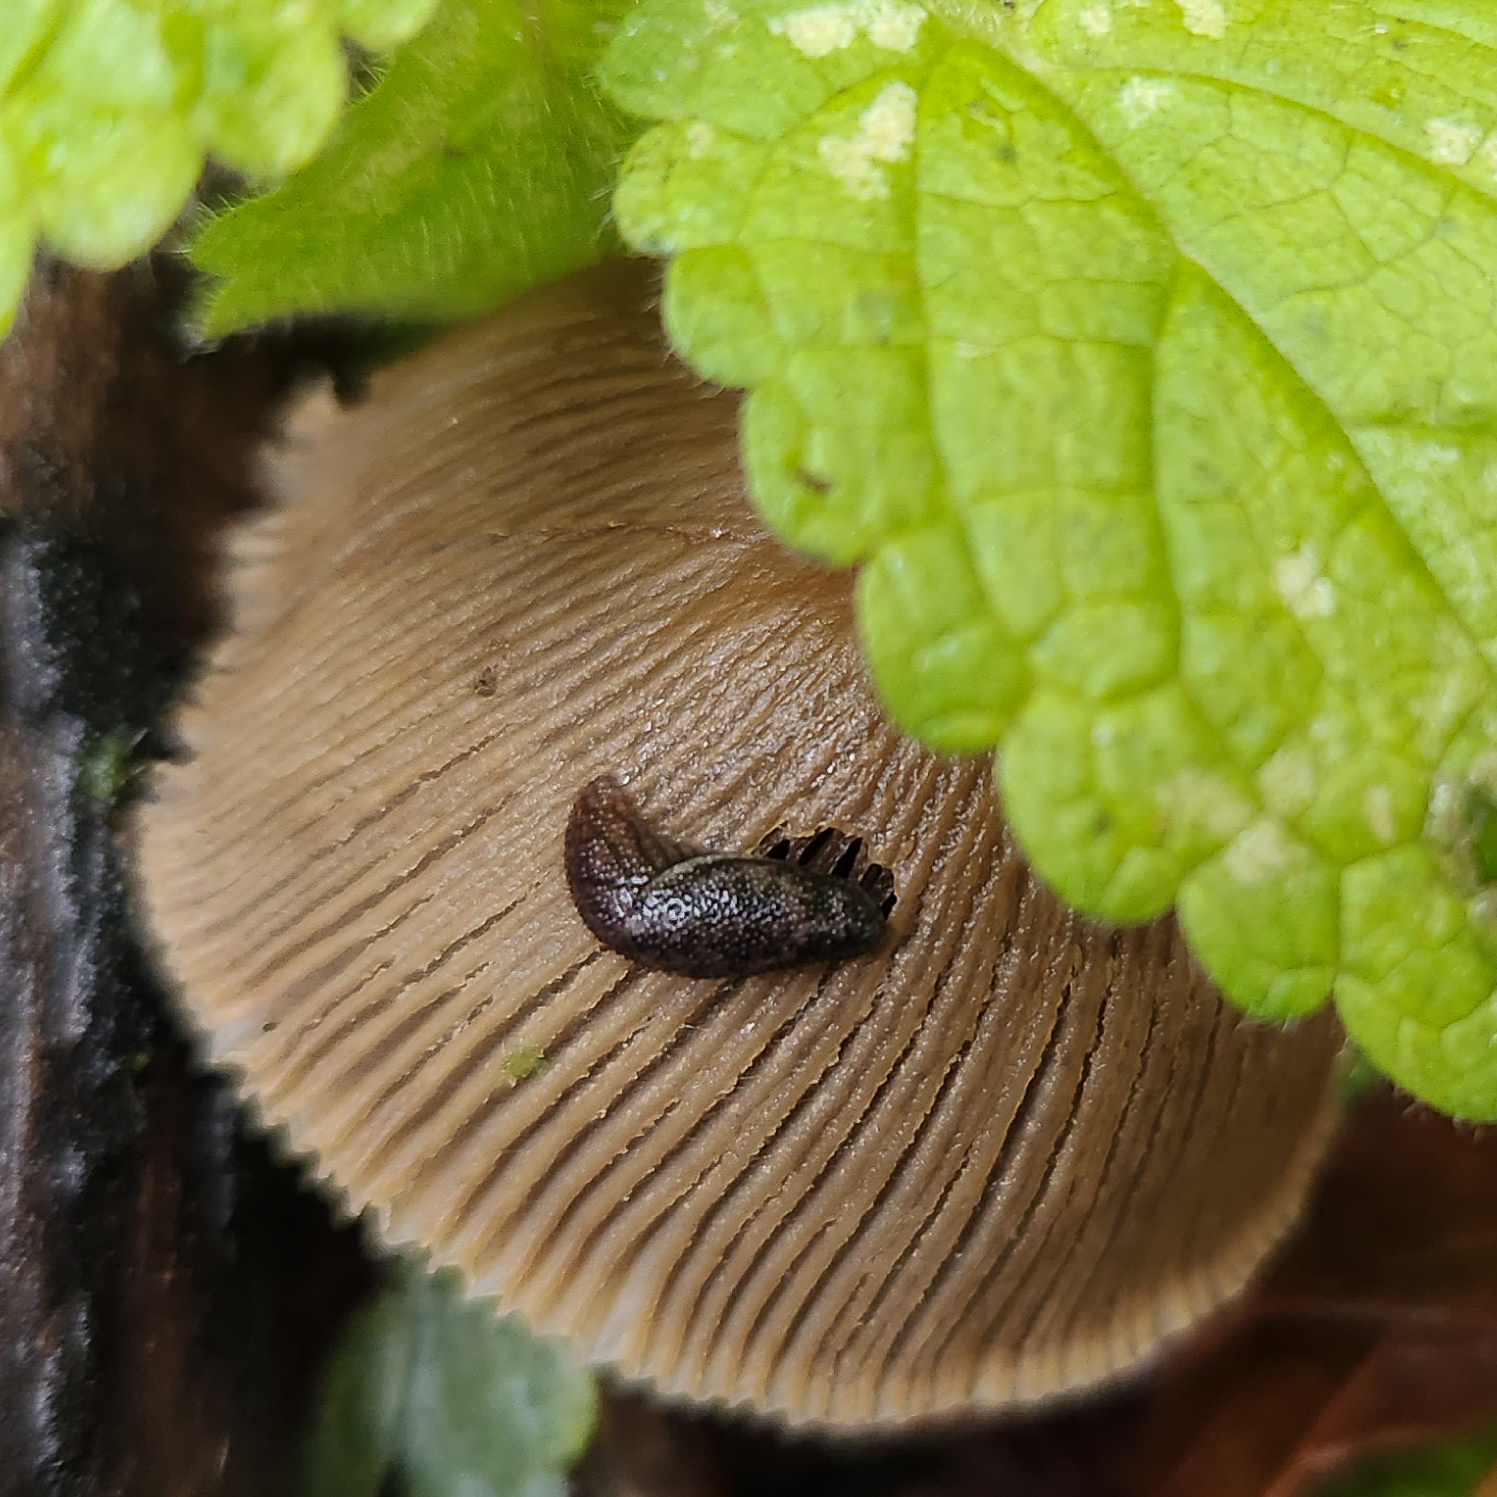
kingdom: Animalia
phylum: Mollusca
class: Gastropoda
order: Stylommatophora
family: Ariolimacidae
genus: Prophysaon
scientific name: Prophysaon dubium
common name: Papillose taildropper
